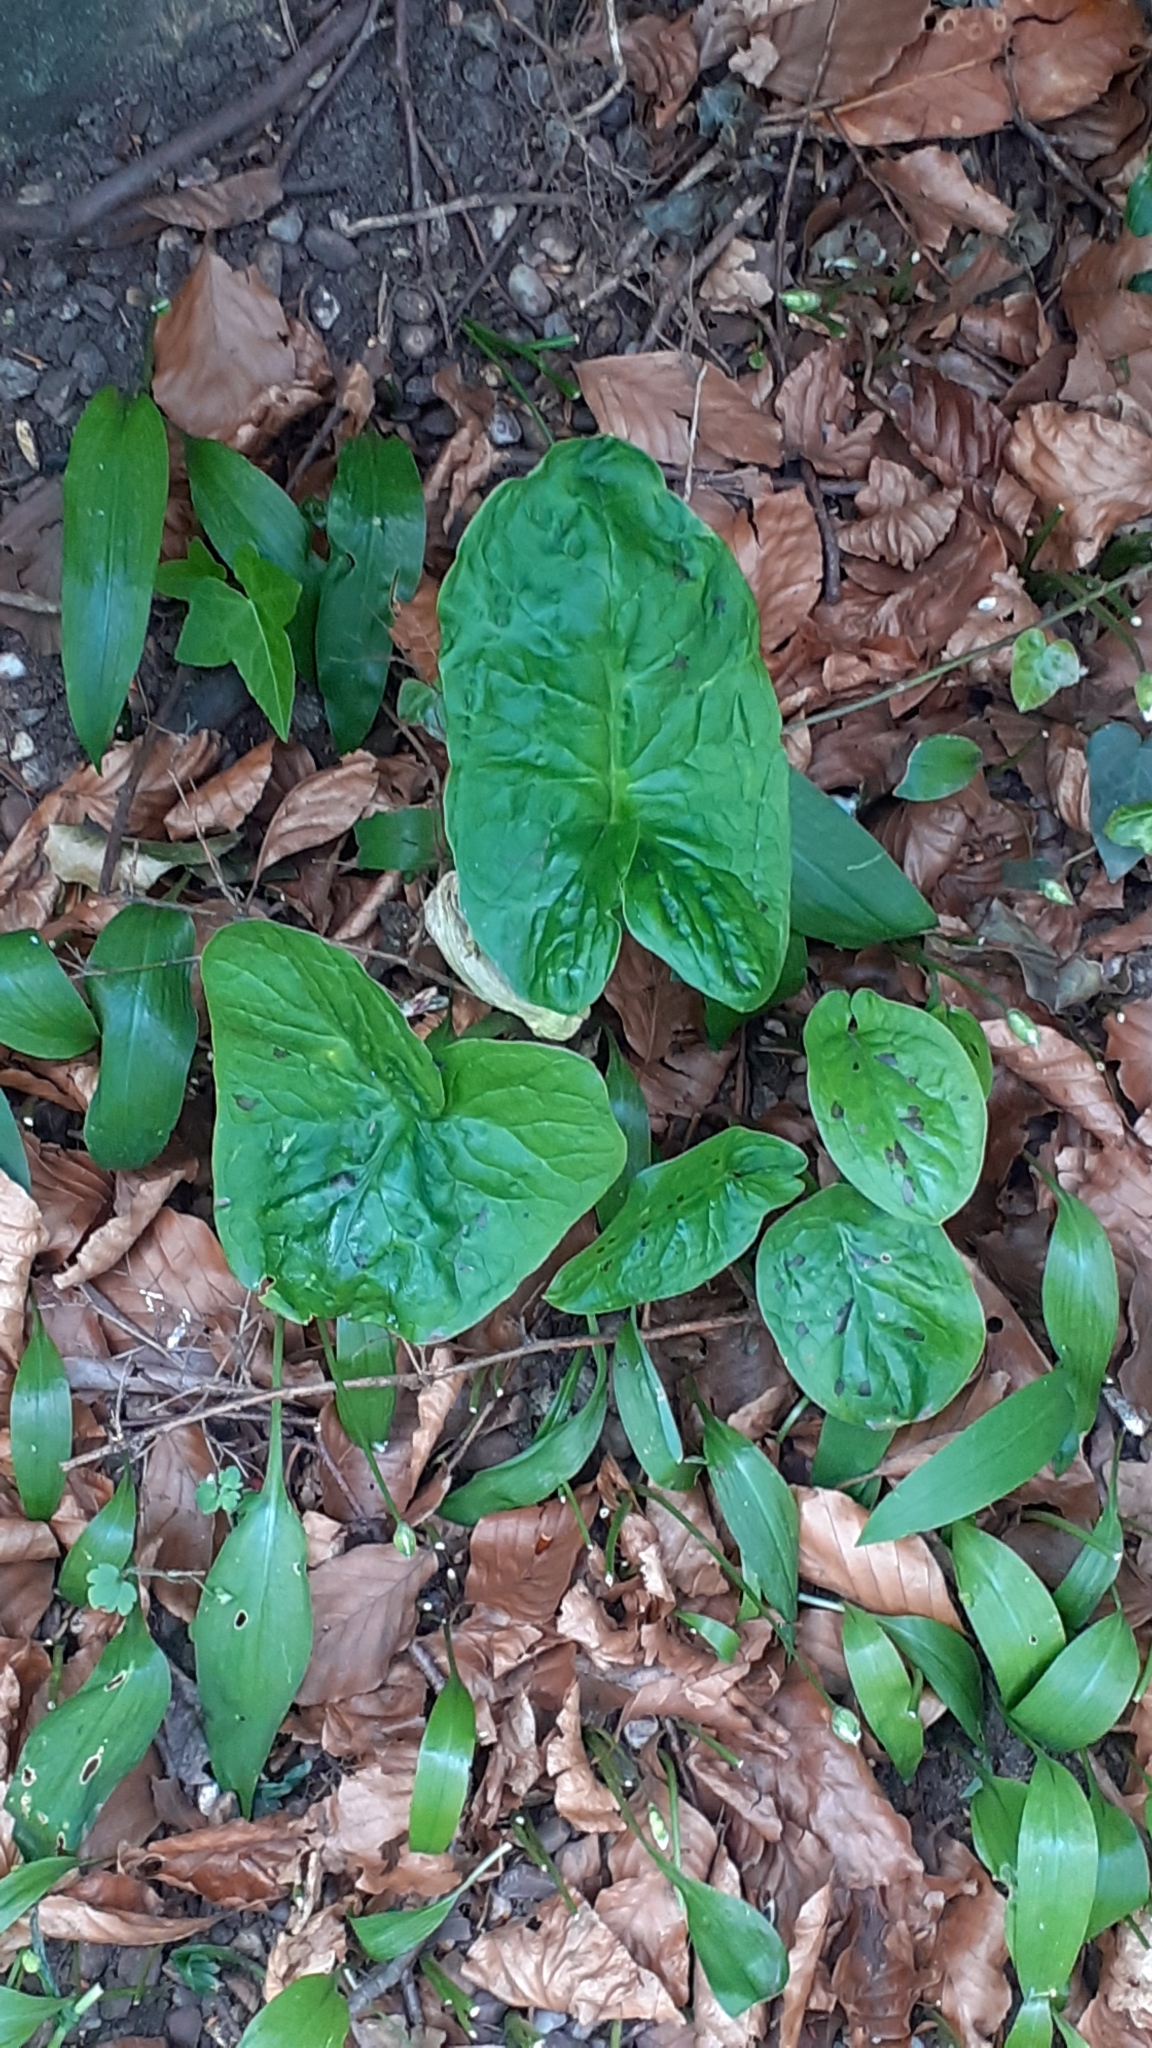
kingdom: Plantae
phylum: Tracheophyta
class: Liliopsida
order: Alismatales
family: Araceae
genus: Arum
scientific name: Arum maculatum
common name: Lords-and-ladies
